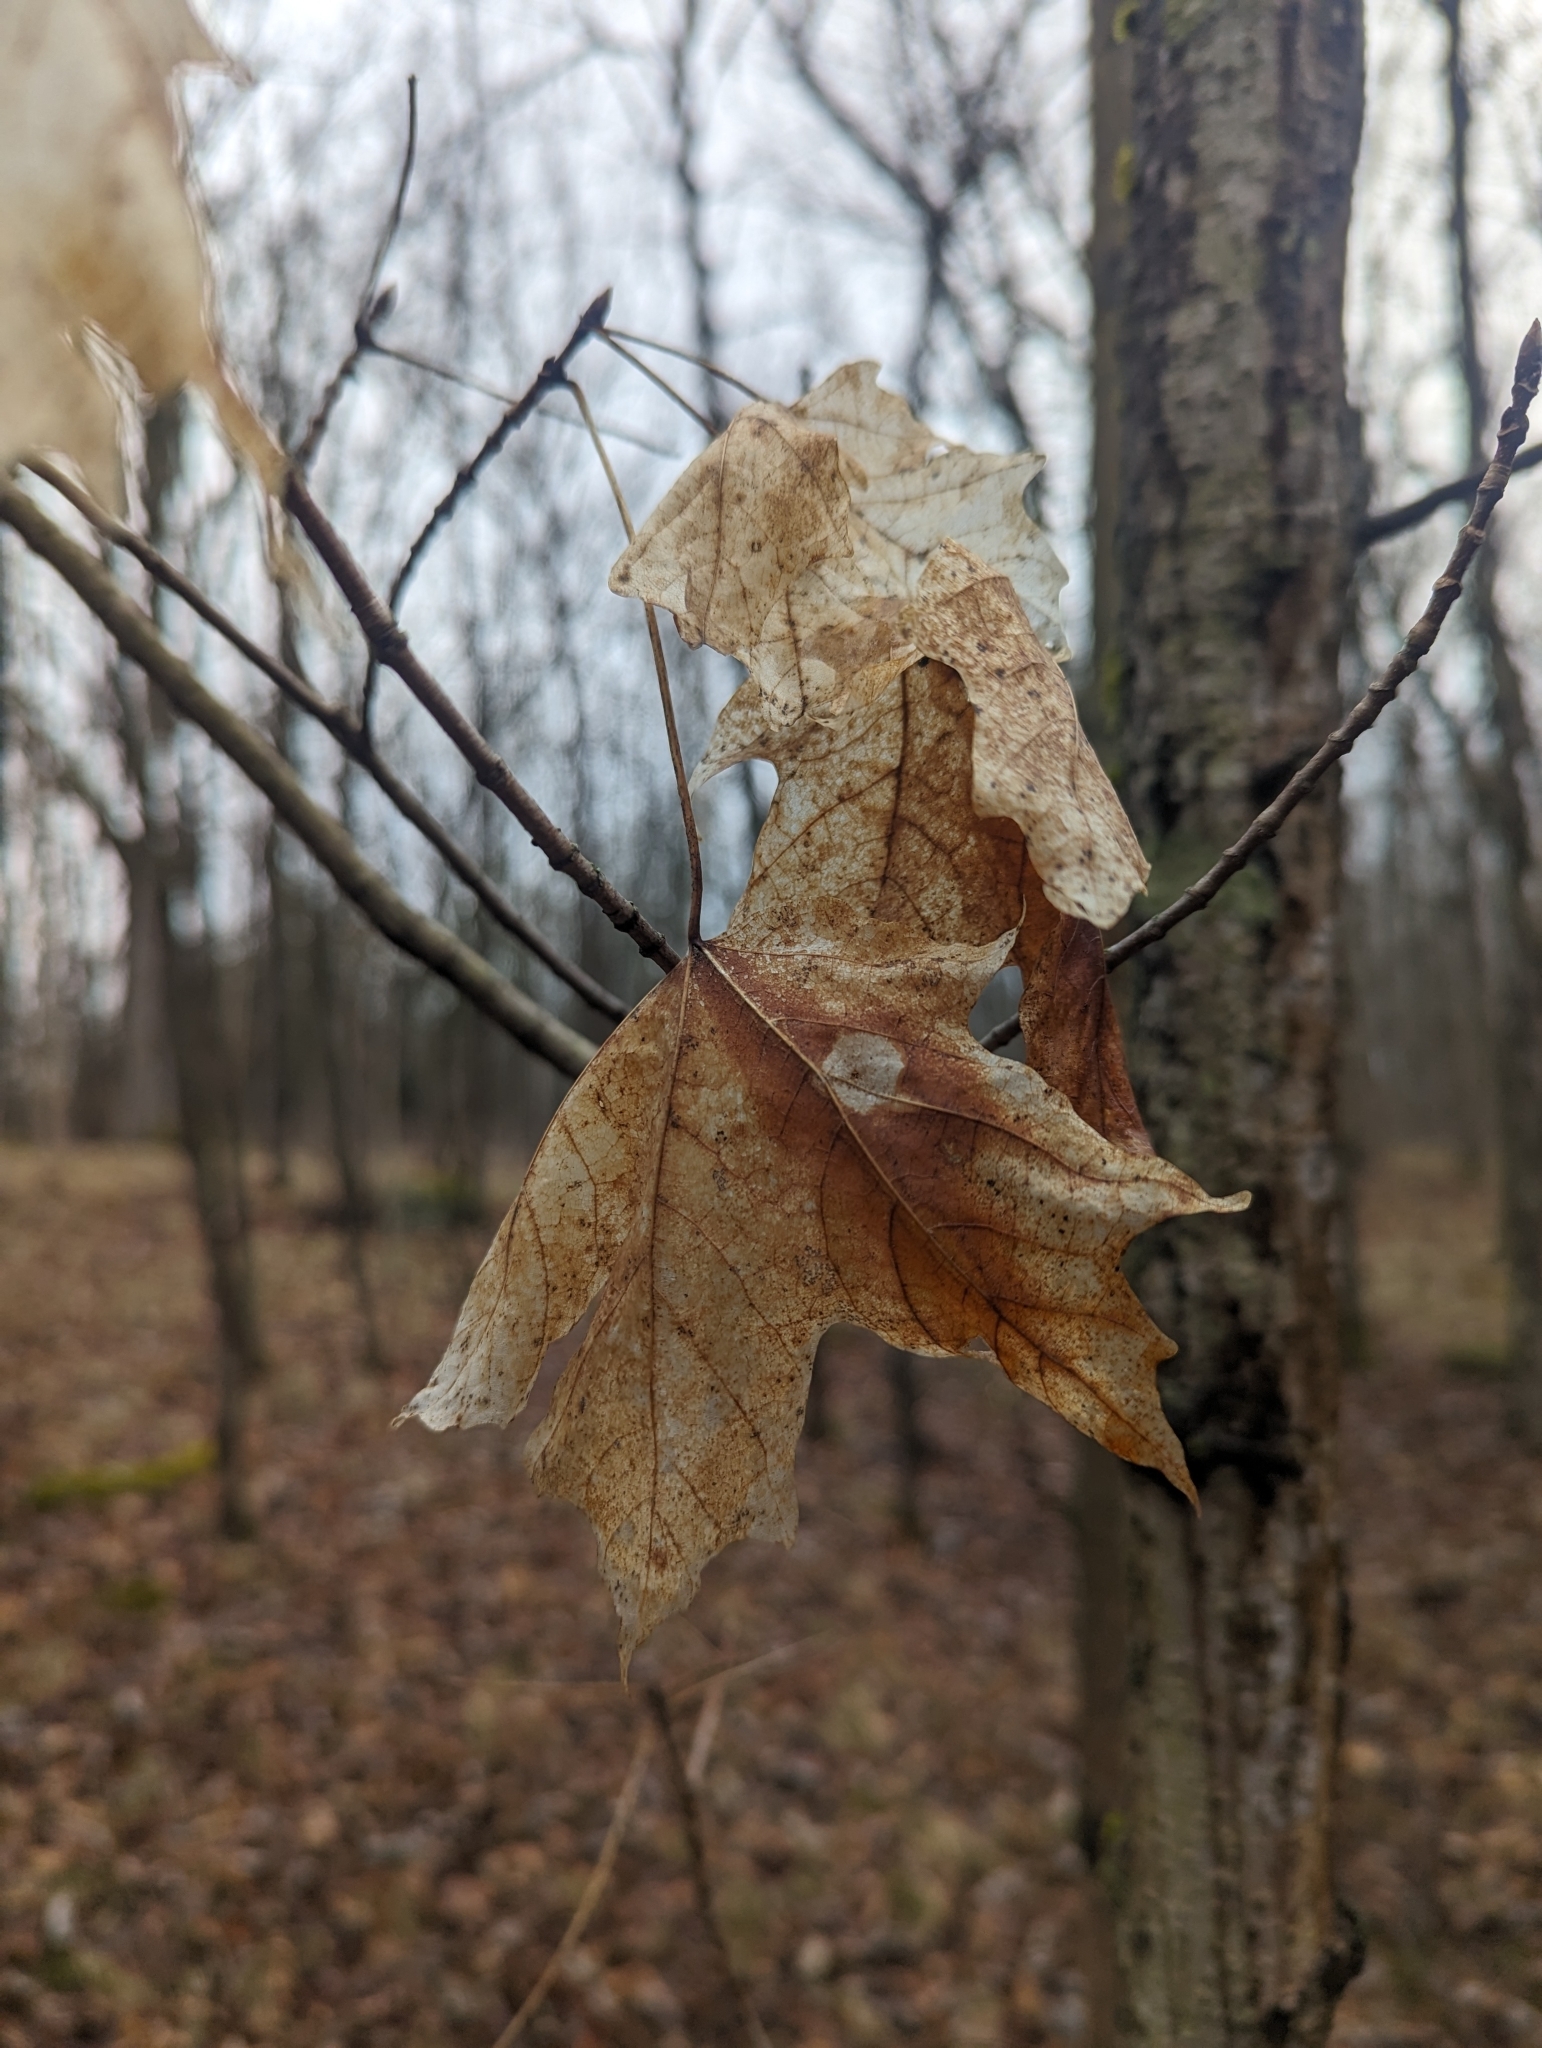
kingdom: Plantae
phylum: Tracheophyta
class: Magnoliopsida
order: Sapindales
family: Sapindaceae
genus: Acer
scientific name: Acer saccharum
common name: Sugar maple
